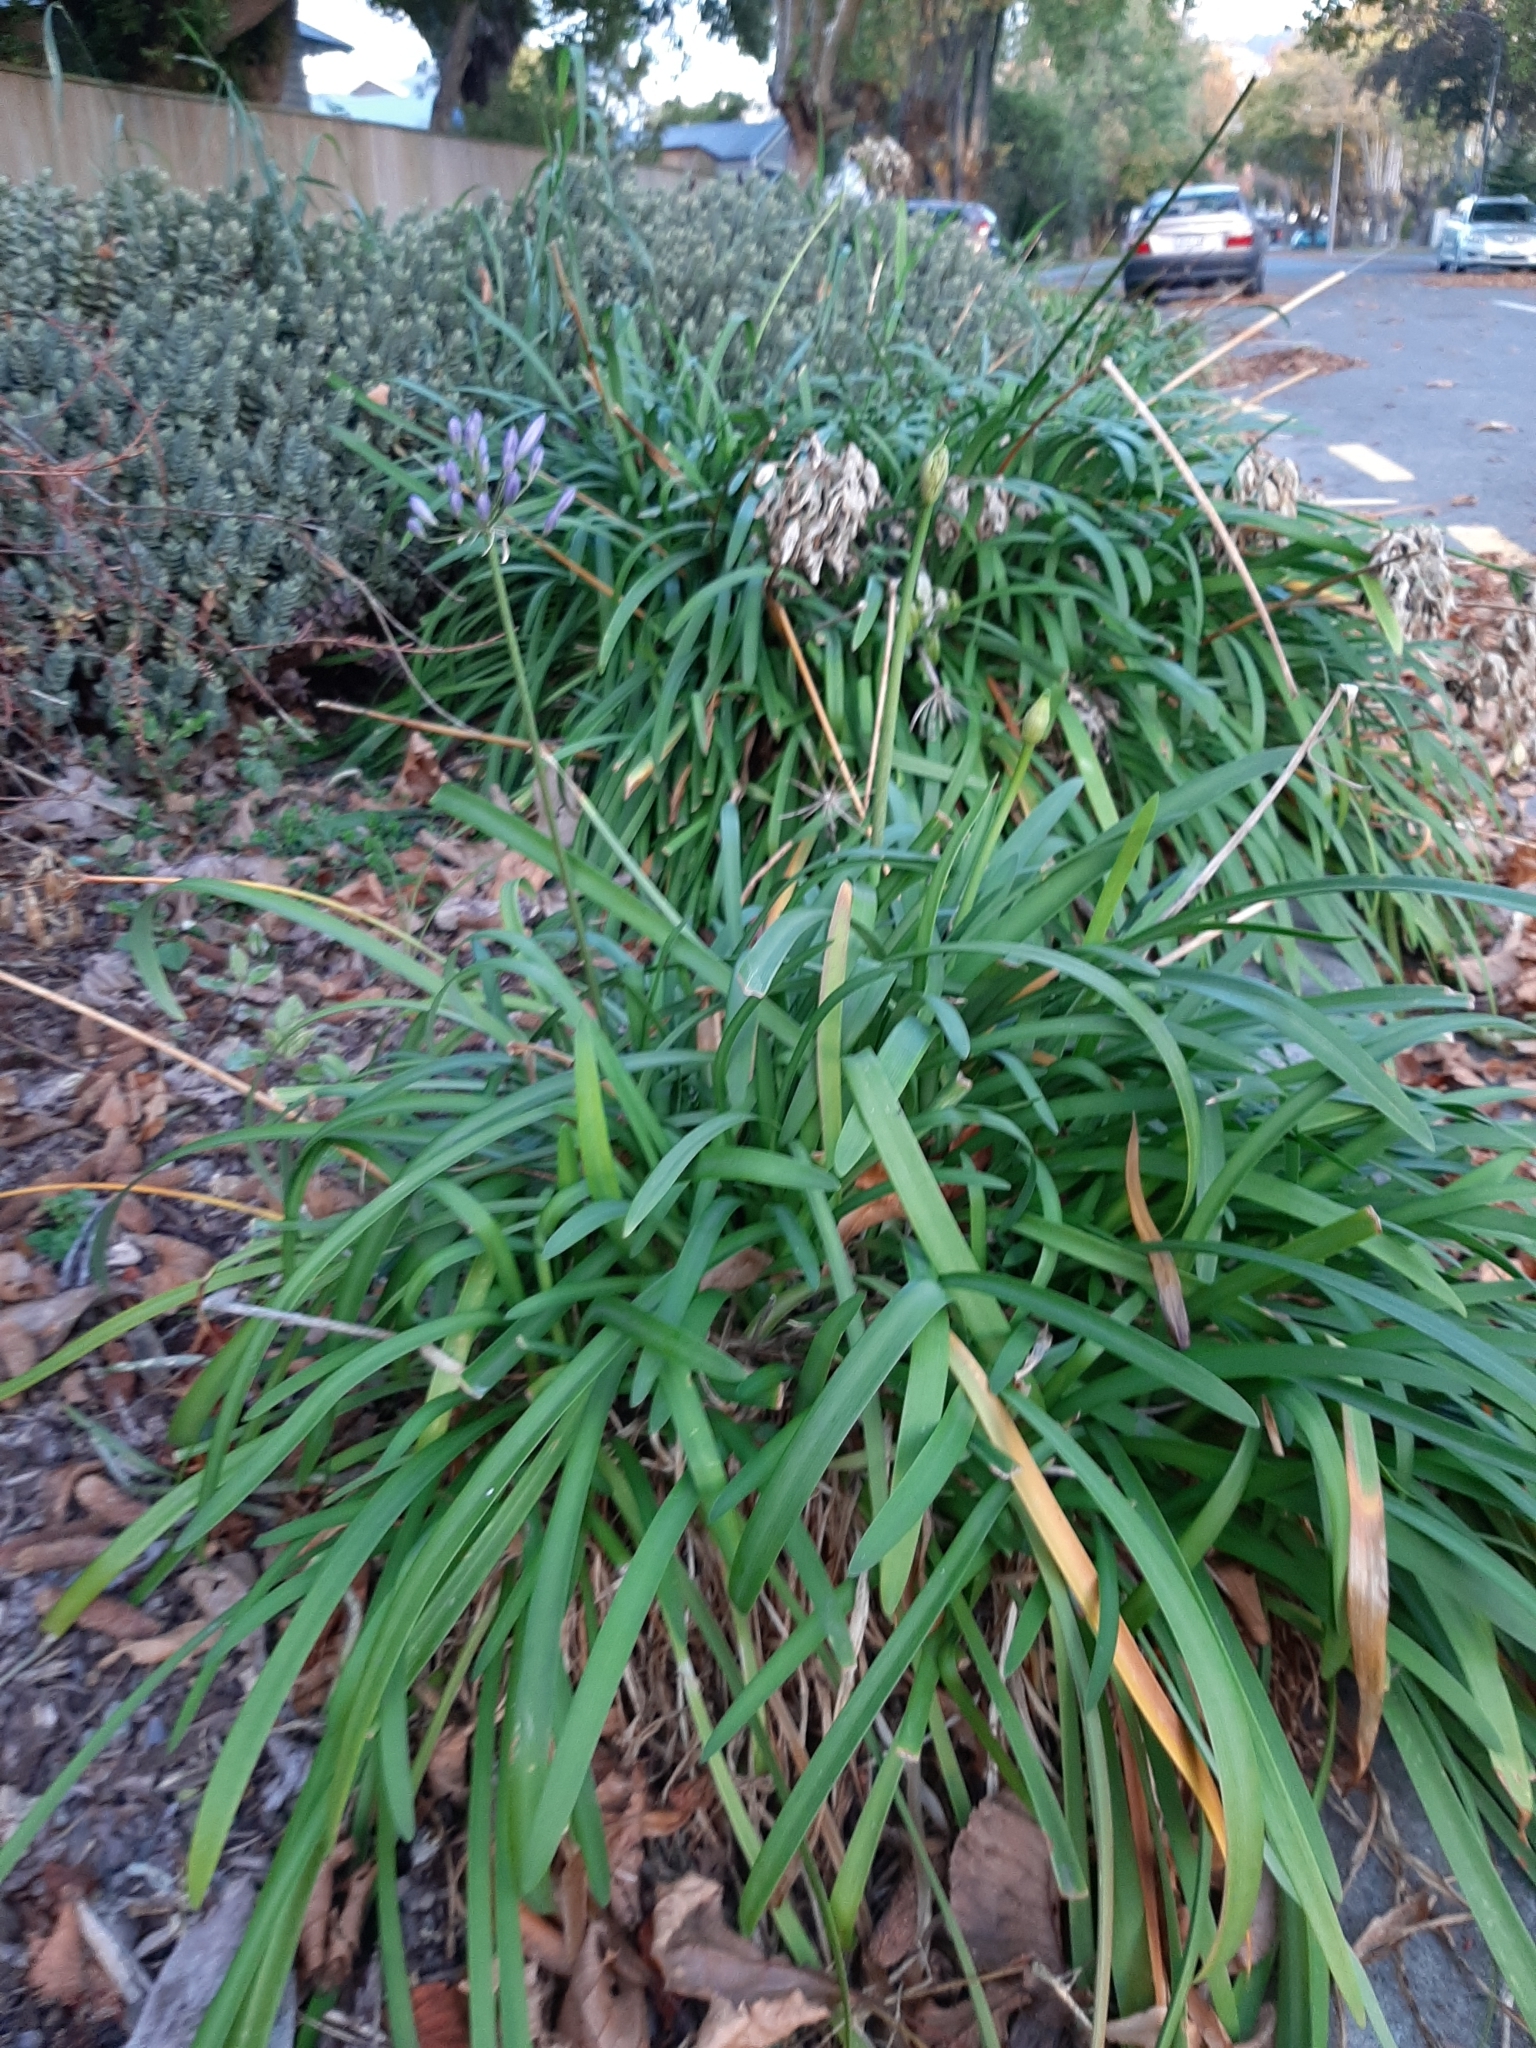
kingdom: Plantae
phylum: Tracheophyta
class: Liliopsida
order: Asparagales
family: Amaryllidaceae
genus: Agapanthus
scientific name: Agapanthus praecox
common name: African-lily
